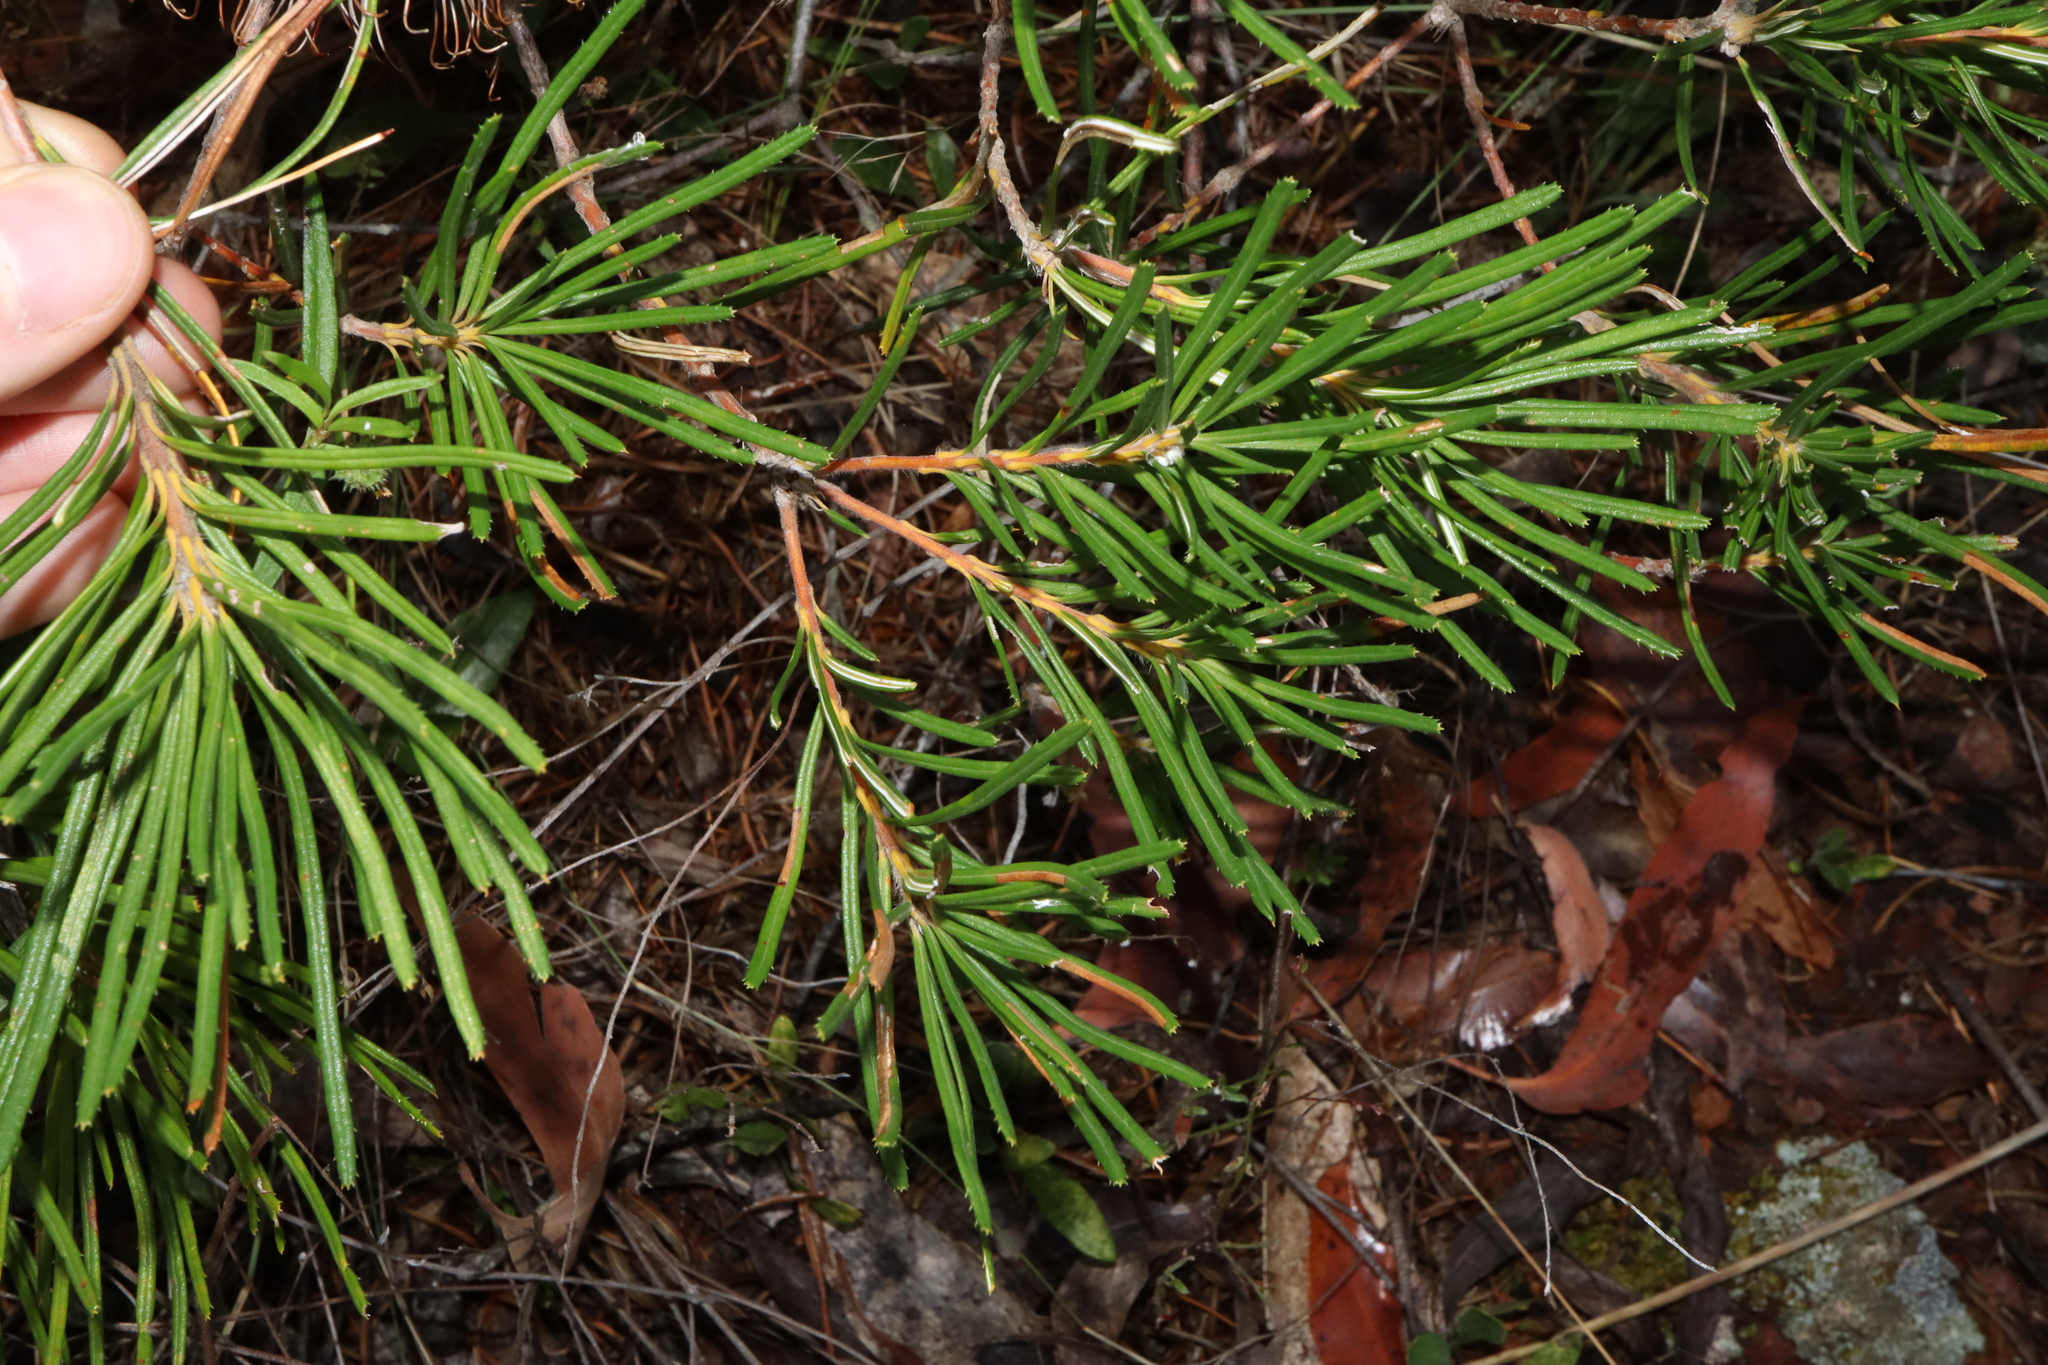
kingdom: Plantae
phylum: Tracheophyta
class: Magnoliopsida
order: Proteales
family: Proteaceae
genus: Banksia
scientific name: Banksia spinulosa
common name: Hairpin banksia
